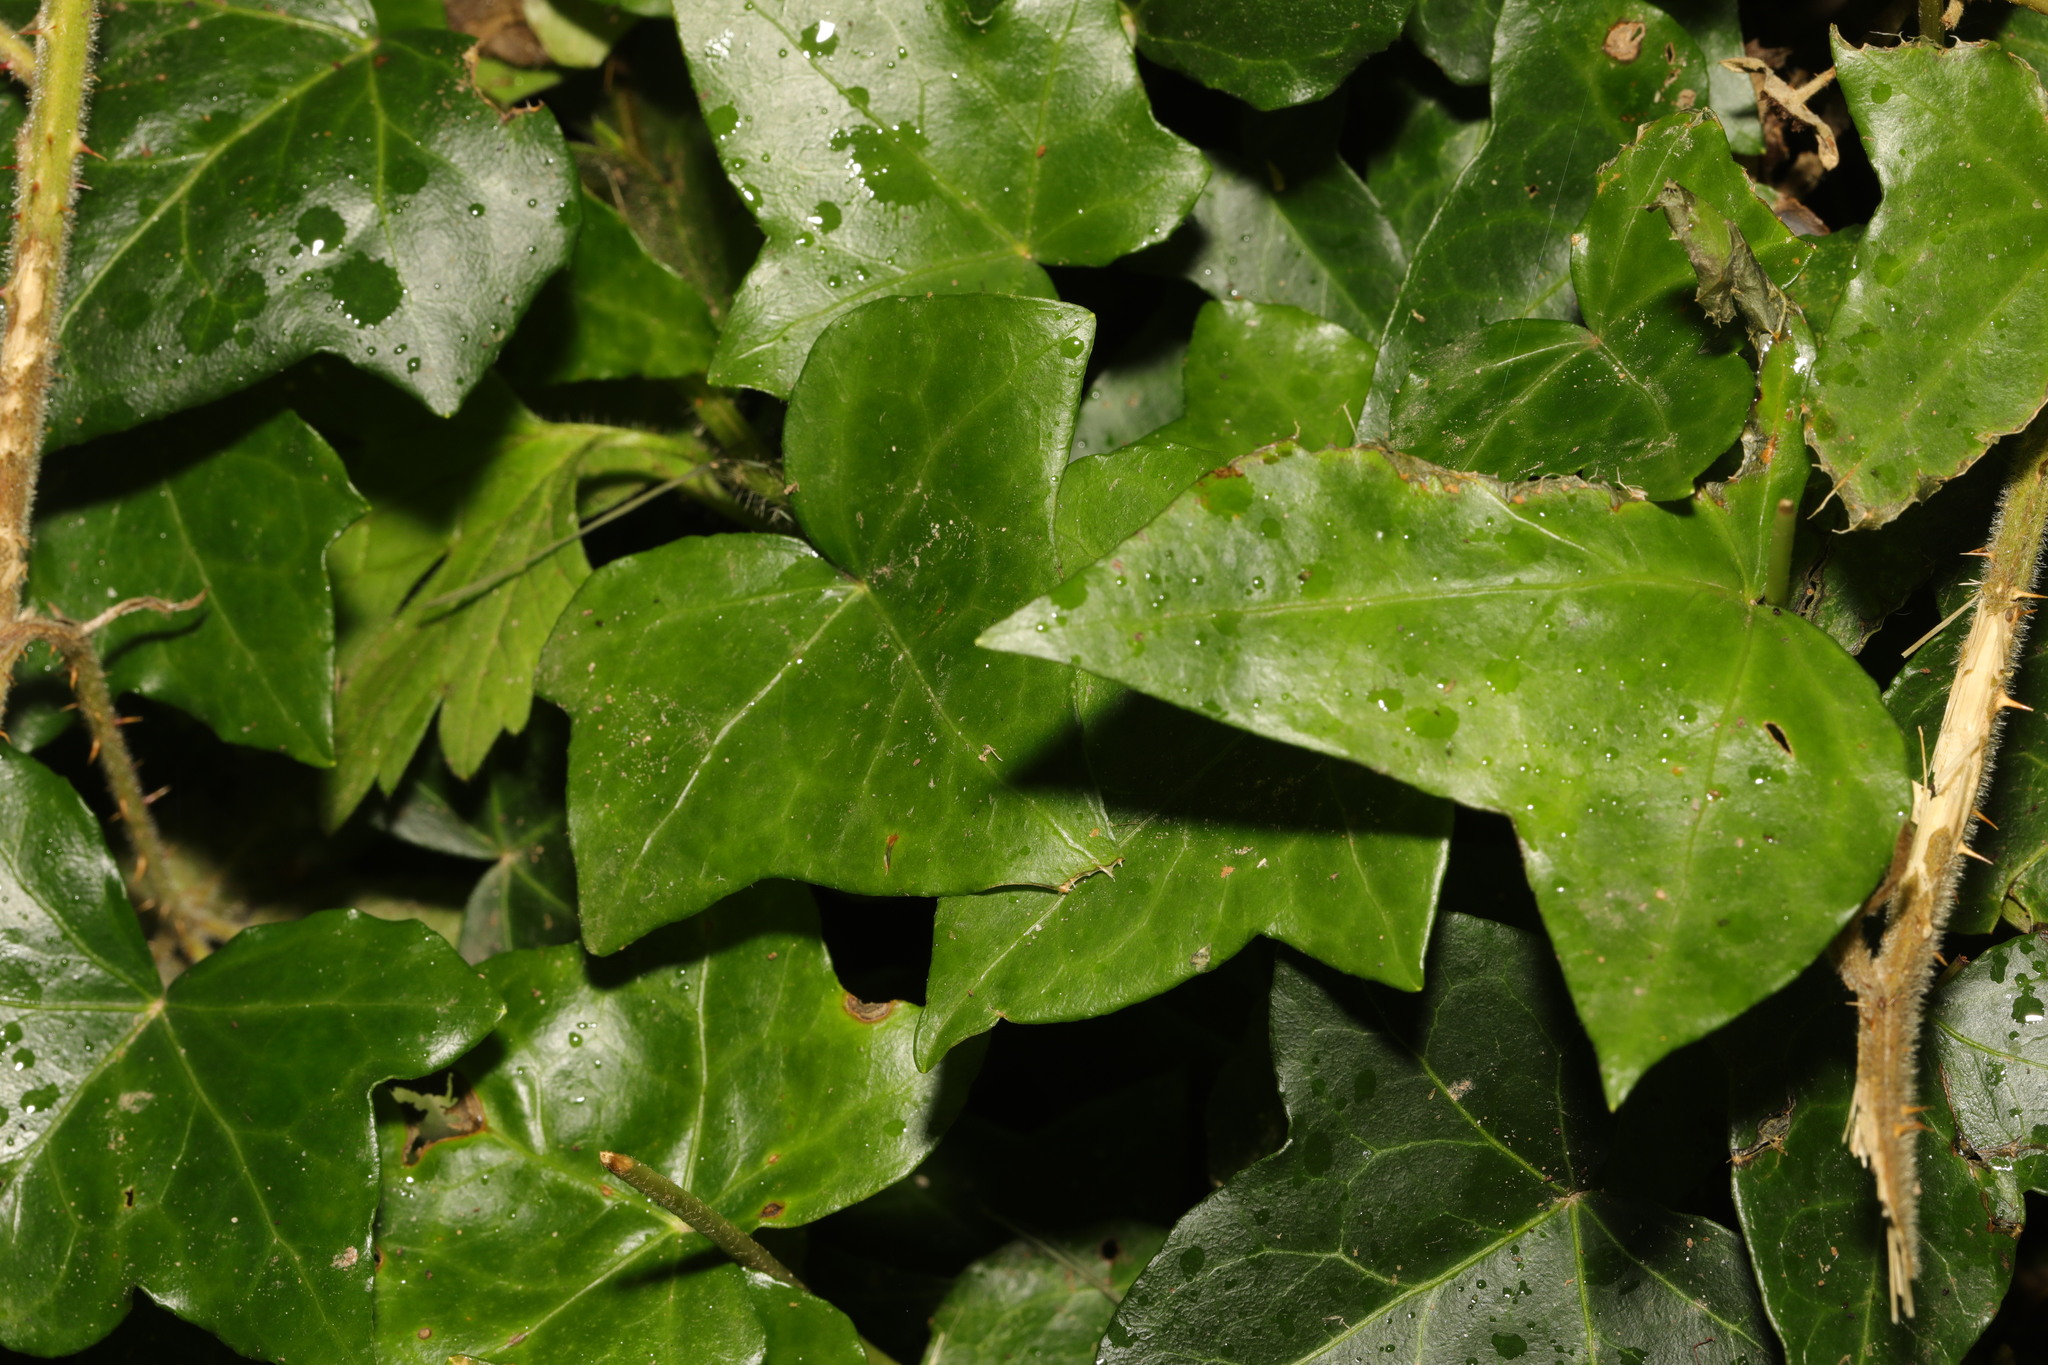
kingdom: Plantae
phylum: Tracheophyta
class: Magnoliopsida
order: Apiales
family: Araliaceae
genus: Hedera
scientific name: Hedera helix
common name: Ivy
